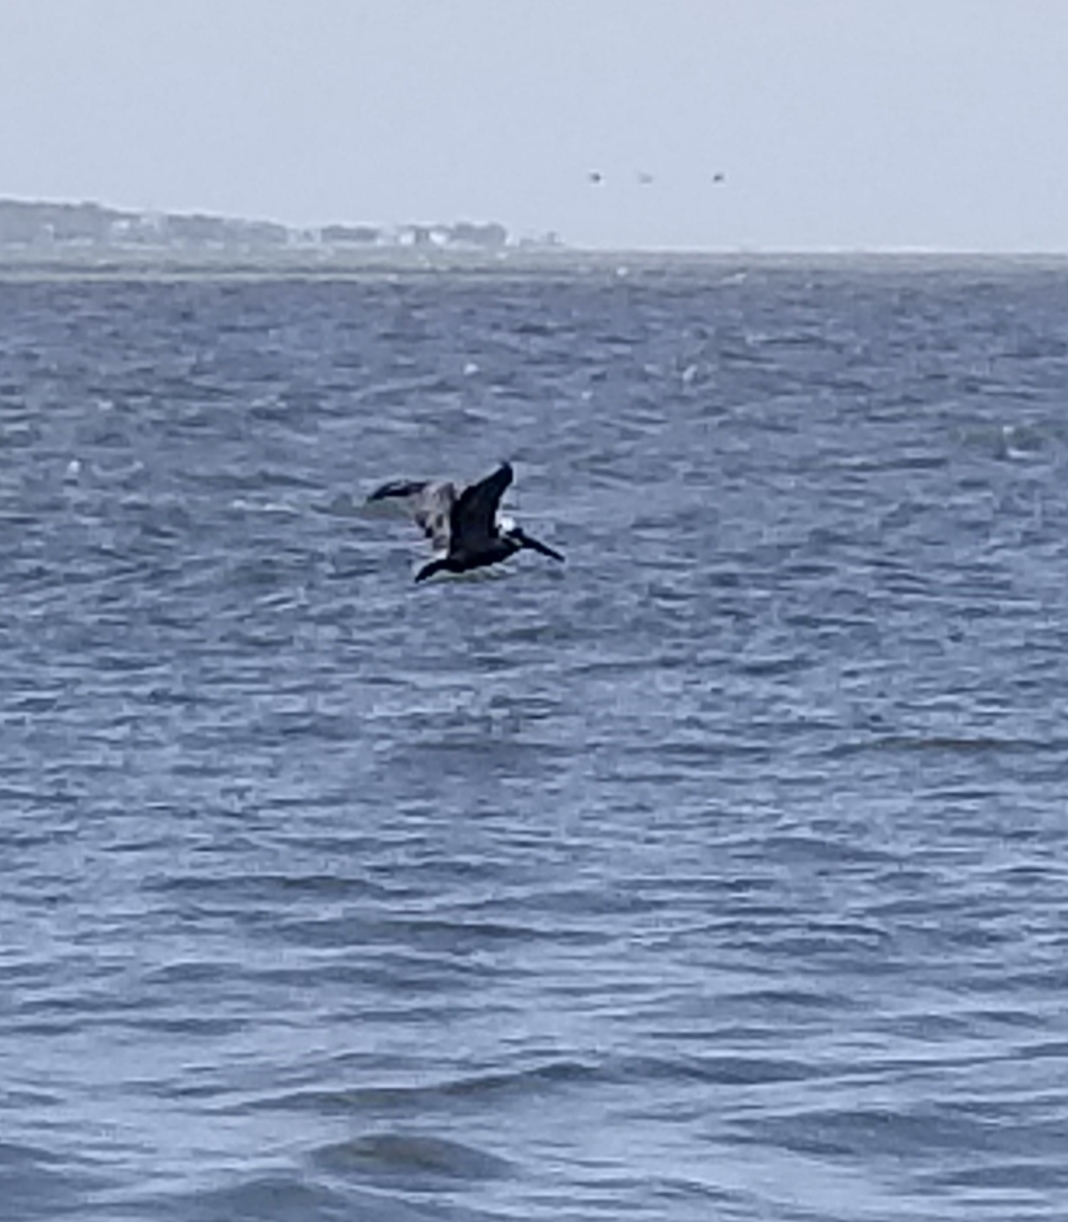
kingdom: Animalia
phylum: Chordata
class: Aves
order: Pelecaniformes
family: Pelecanidae
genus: Pelecanus
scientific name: Pelecanus occidentalis
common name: Brown pelican
